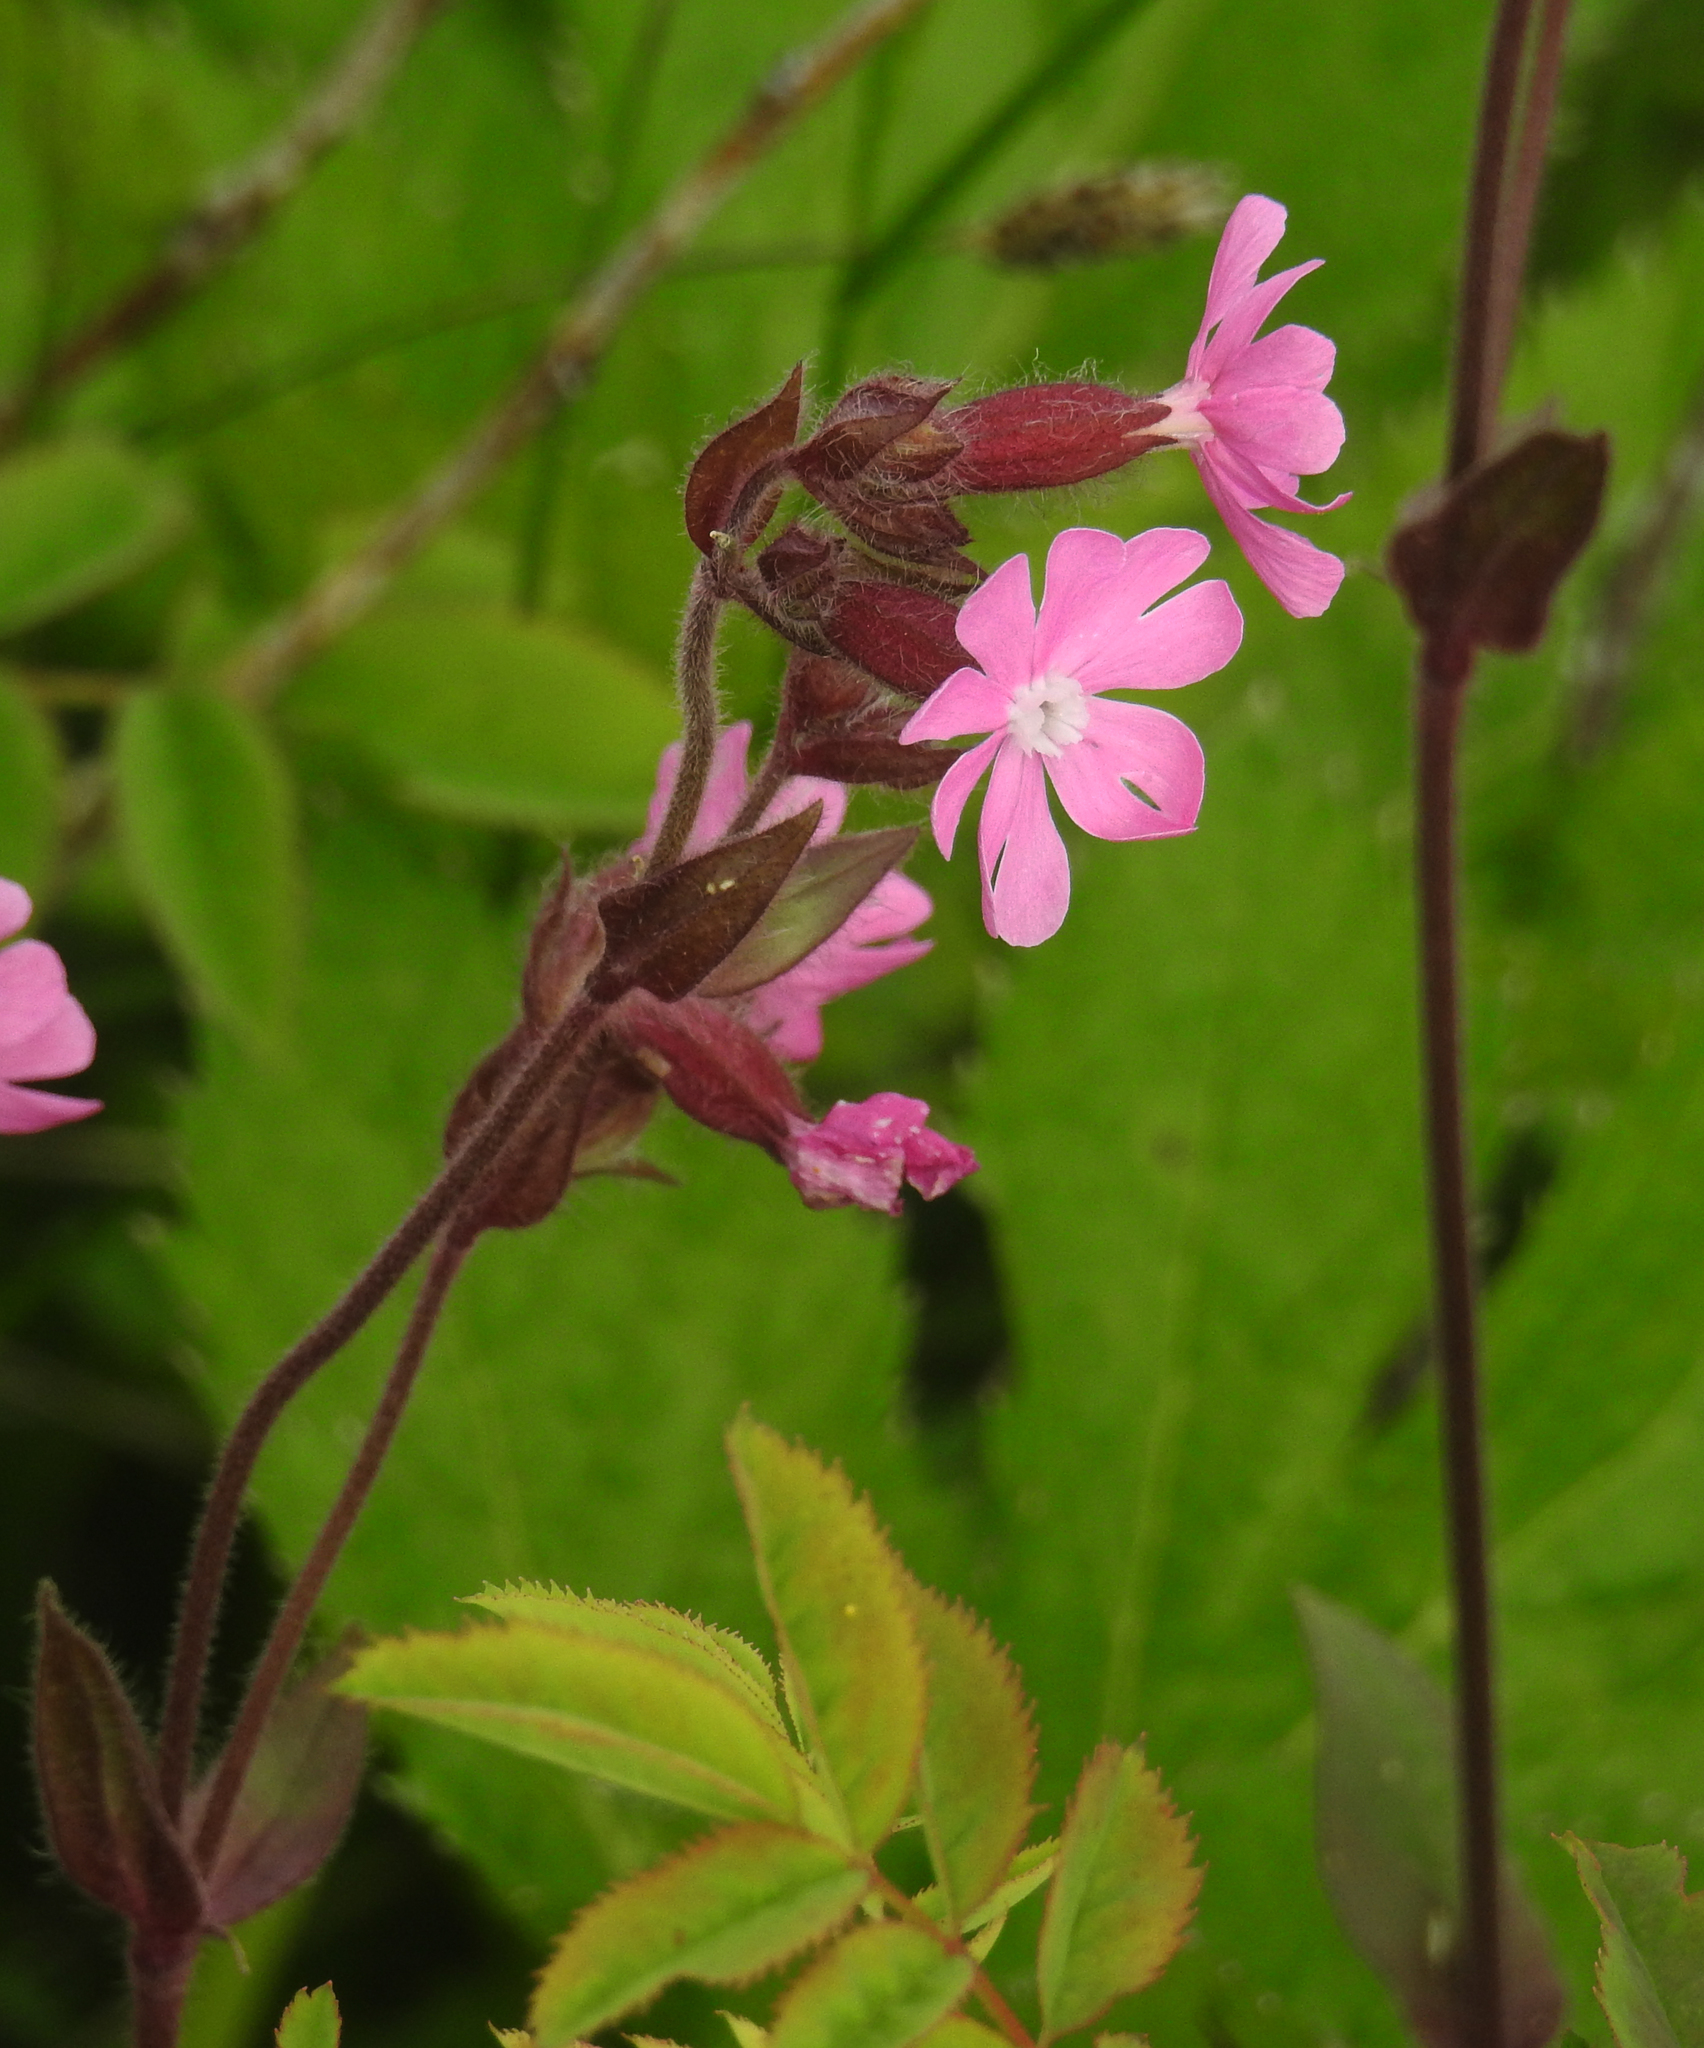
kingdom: Plantae
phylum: Tracheophyta
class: Magnoliopsida
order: Caryophyllales
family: Caryophyllaceae
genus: Silene
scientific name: Silene dioica
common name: Red campion
